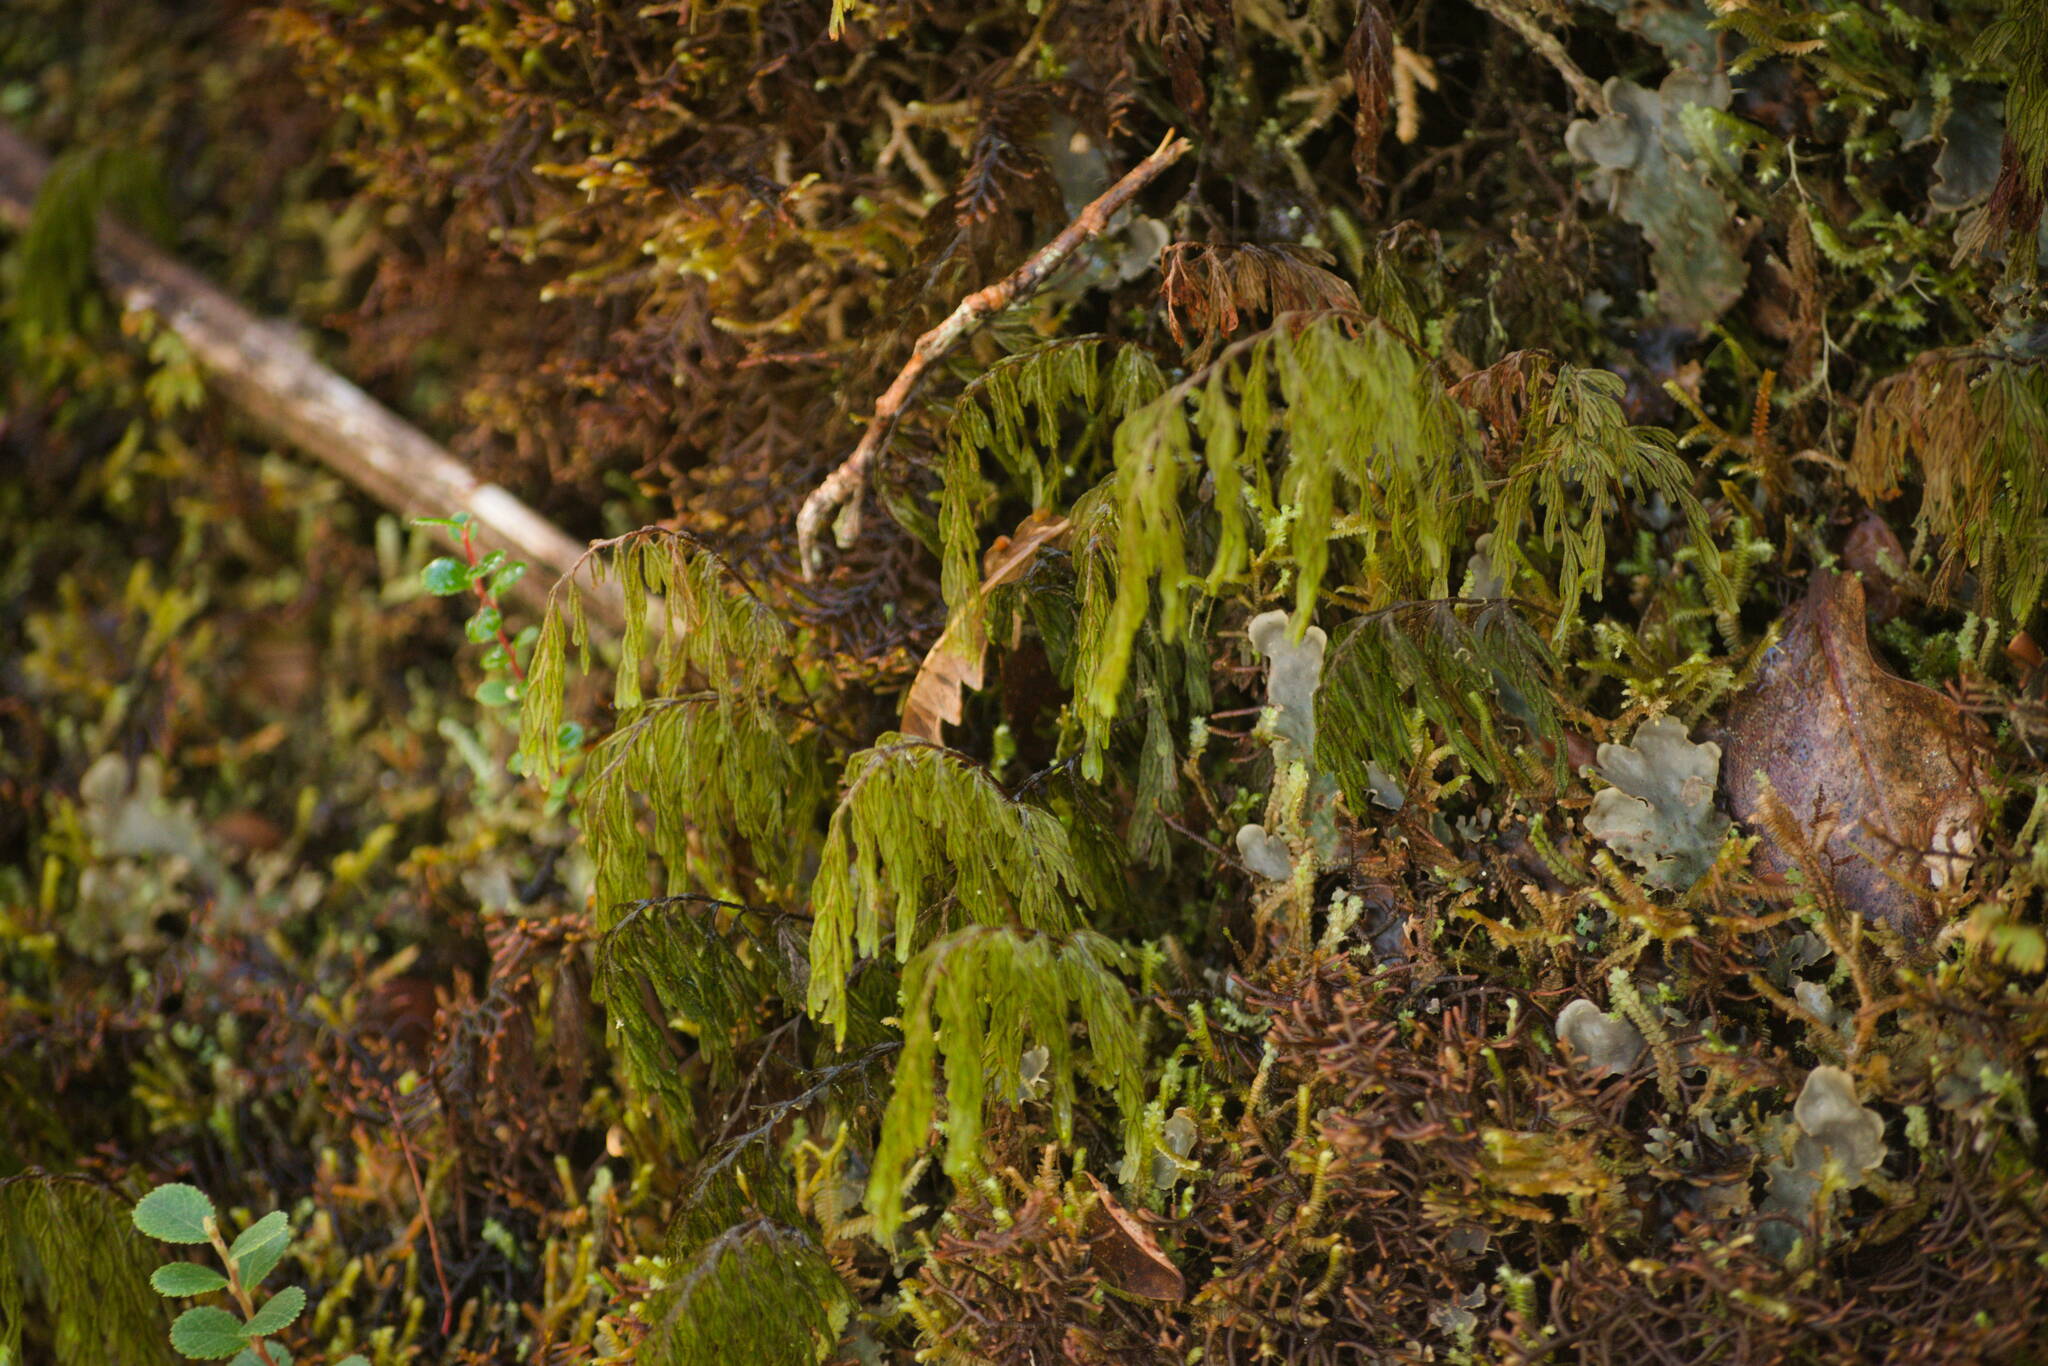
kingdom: Plantae
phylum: Tracheophyta
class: Polypodiopsida
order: Hymenophyllales
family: Hymenophyllaceae
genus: Hymenophyllum
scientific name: Hymenophyllum lanceolatum
